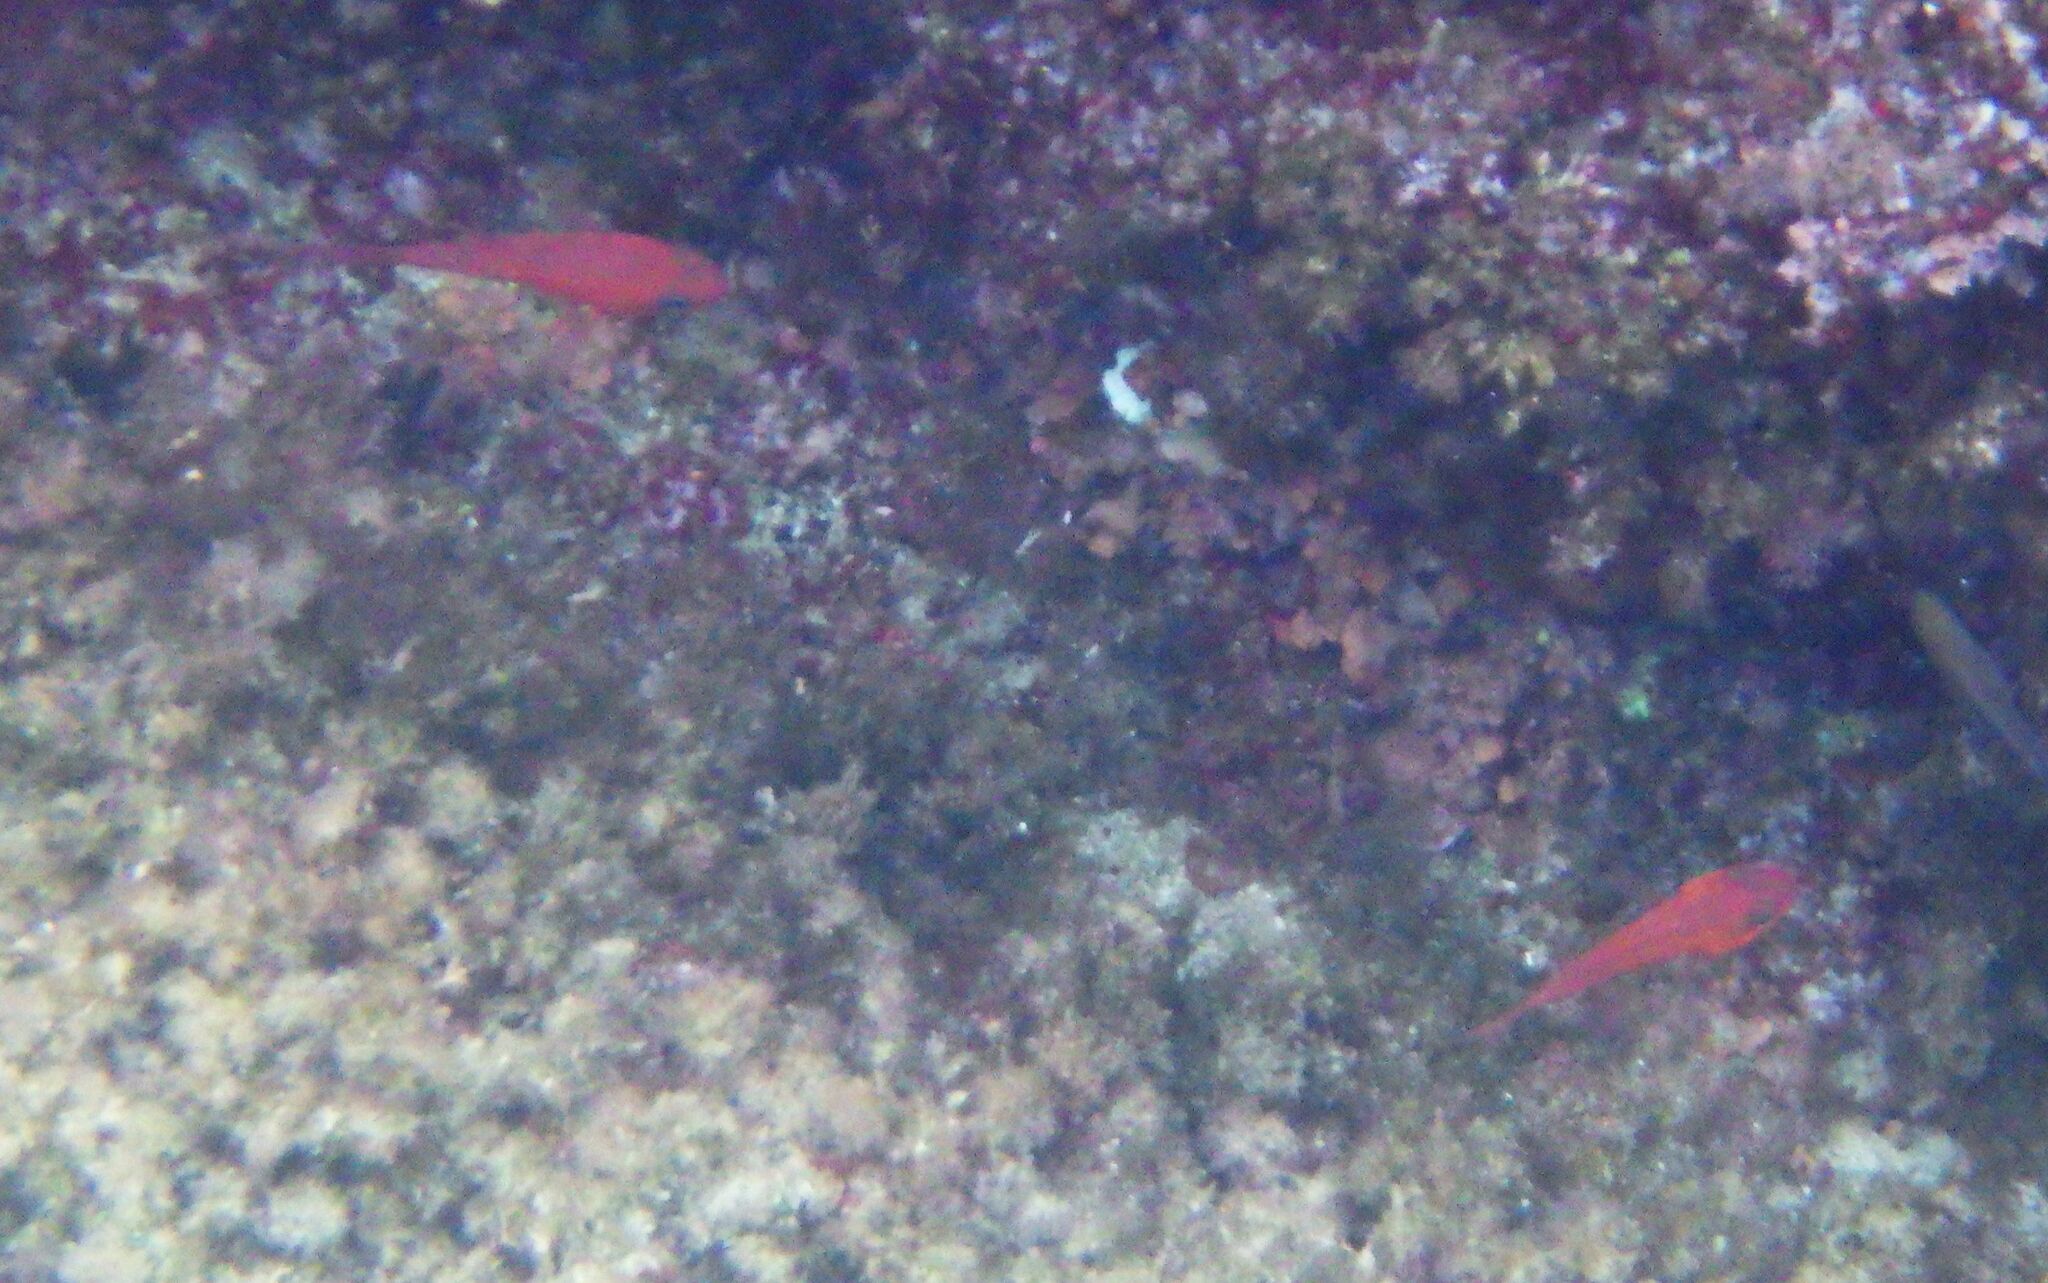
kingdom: Animalia
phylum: Chordata
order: Perciformes
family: Apogonidae
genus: Apogon
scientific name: Apogon imberbis
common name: Cardinal fish
